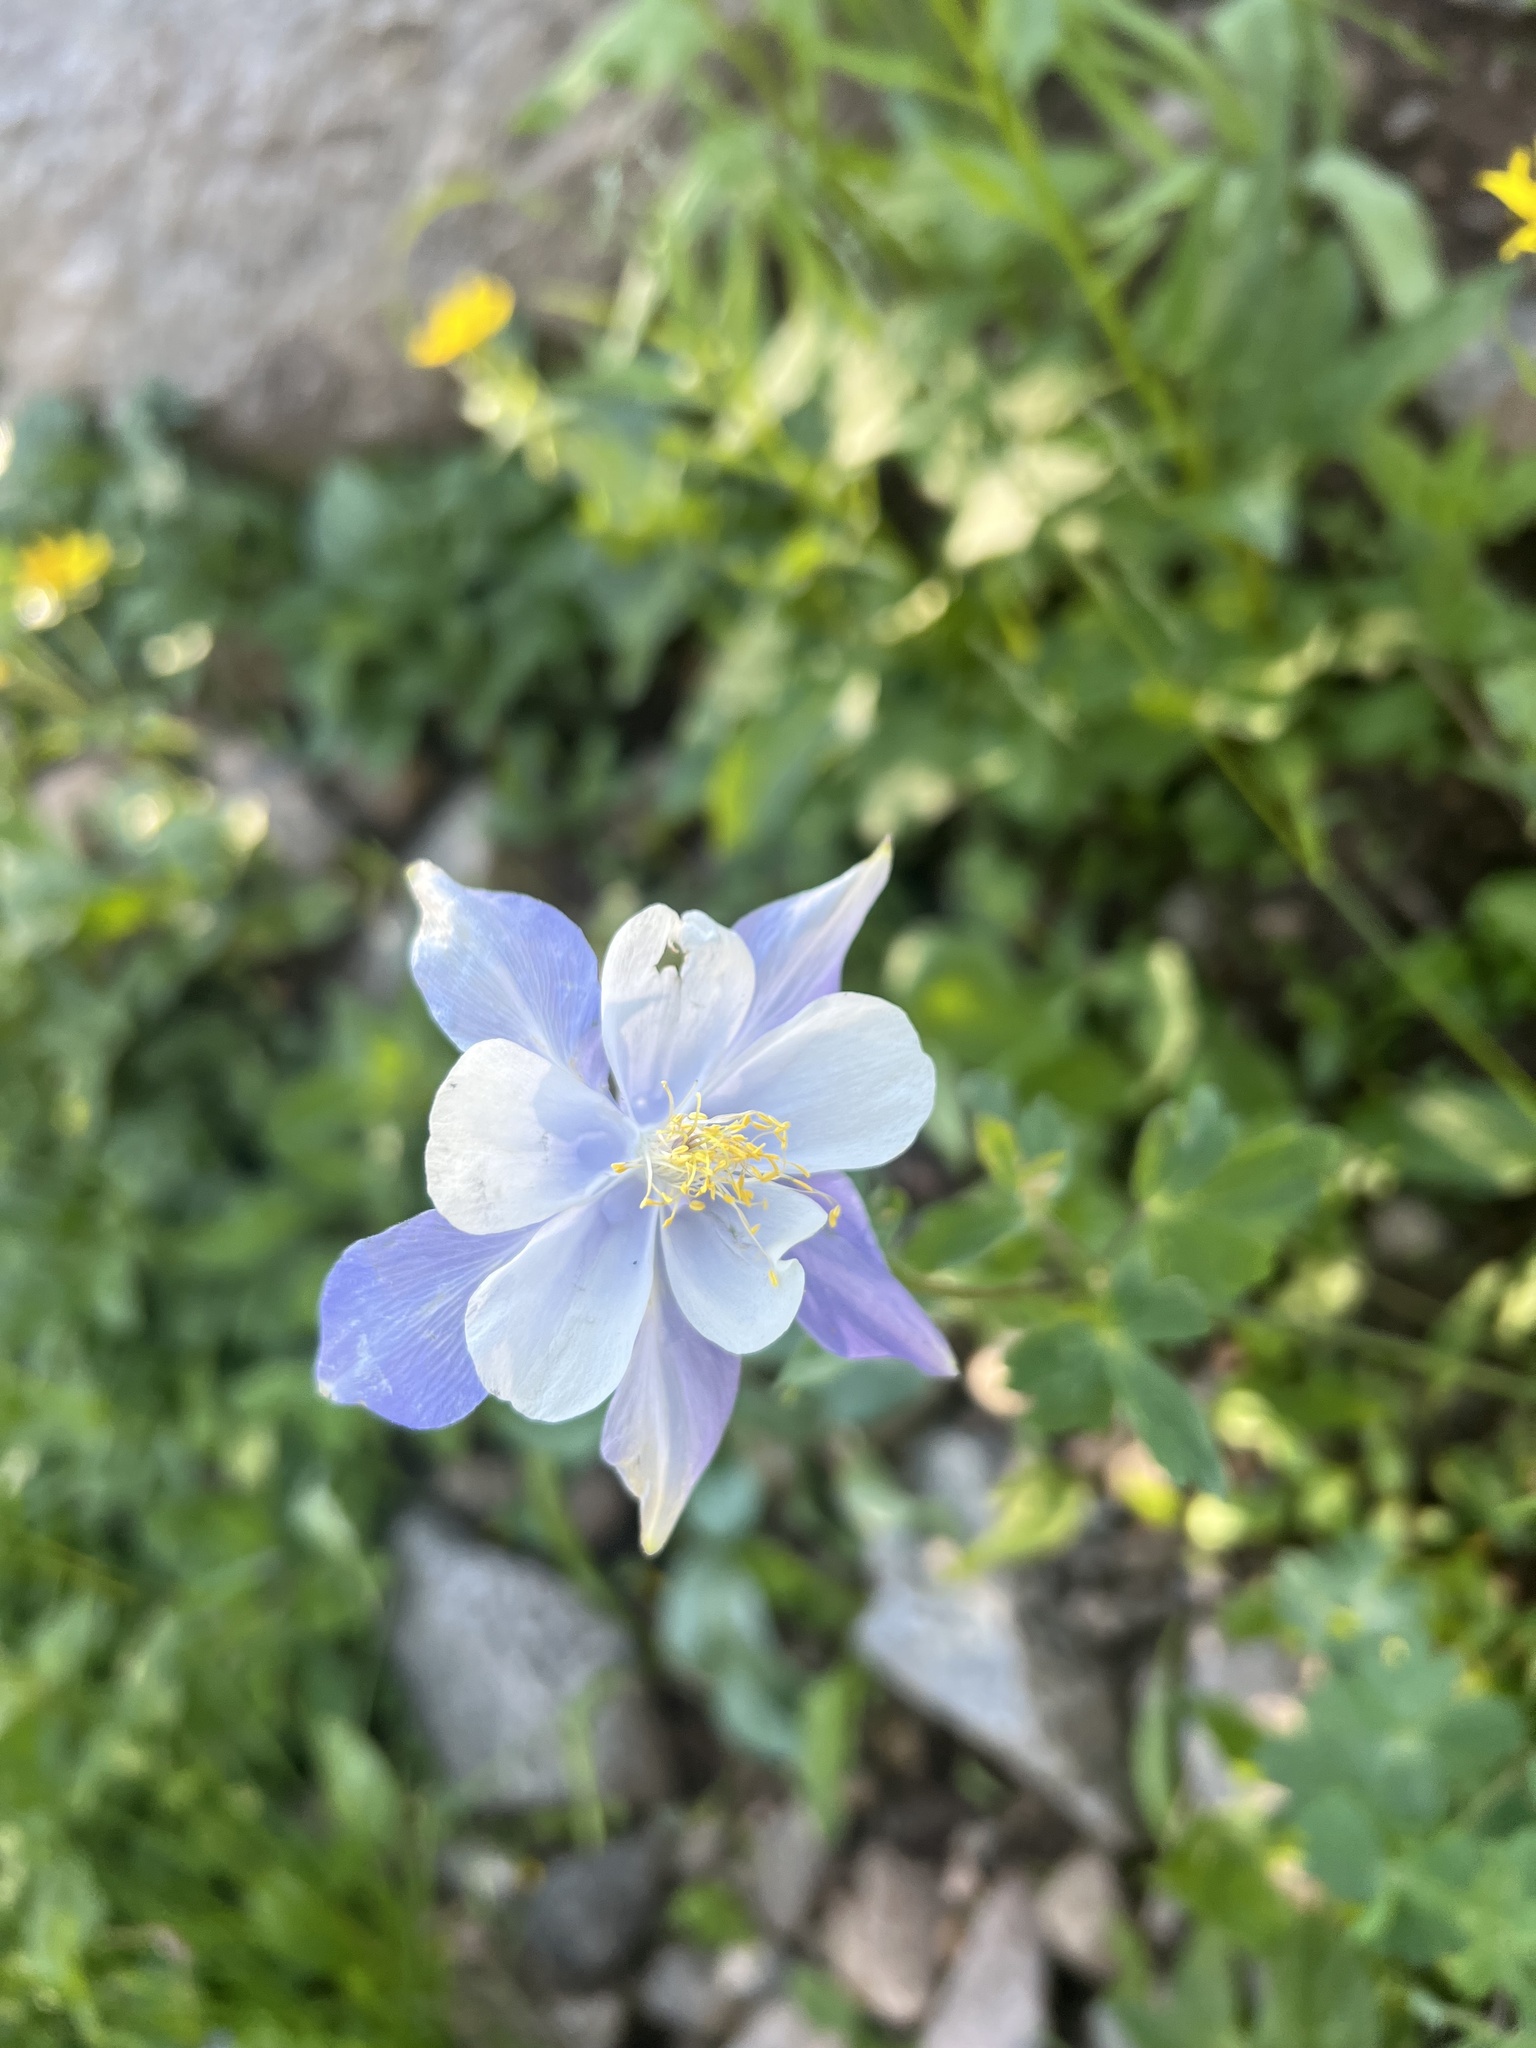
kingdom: Plantae
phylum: Tracheophyta
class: Magnoliopsida
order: Ranunculales
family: Ranunculaceae
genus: Aquilegia
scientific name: Aquilegia coerulea
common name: Rocky mountain columbine
